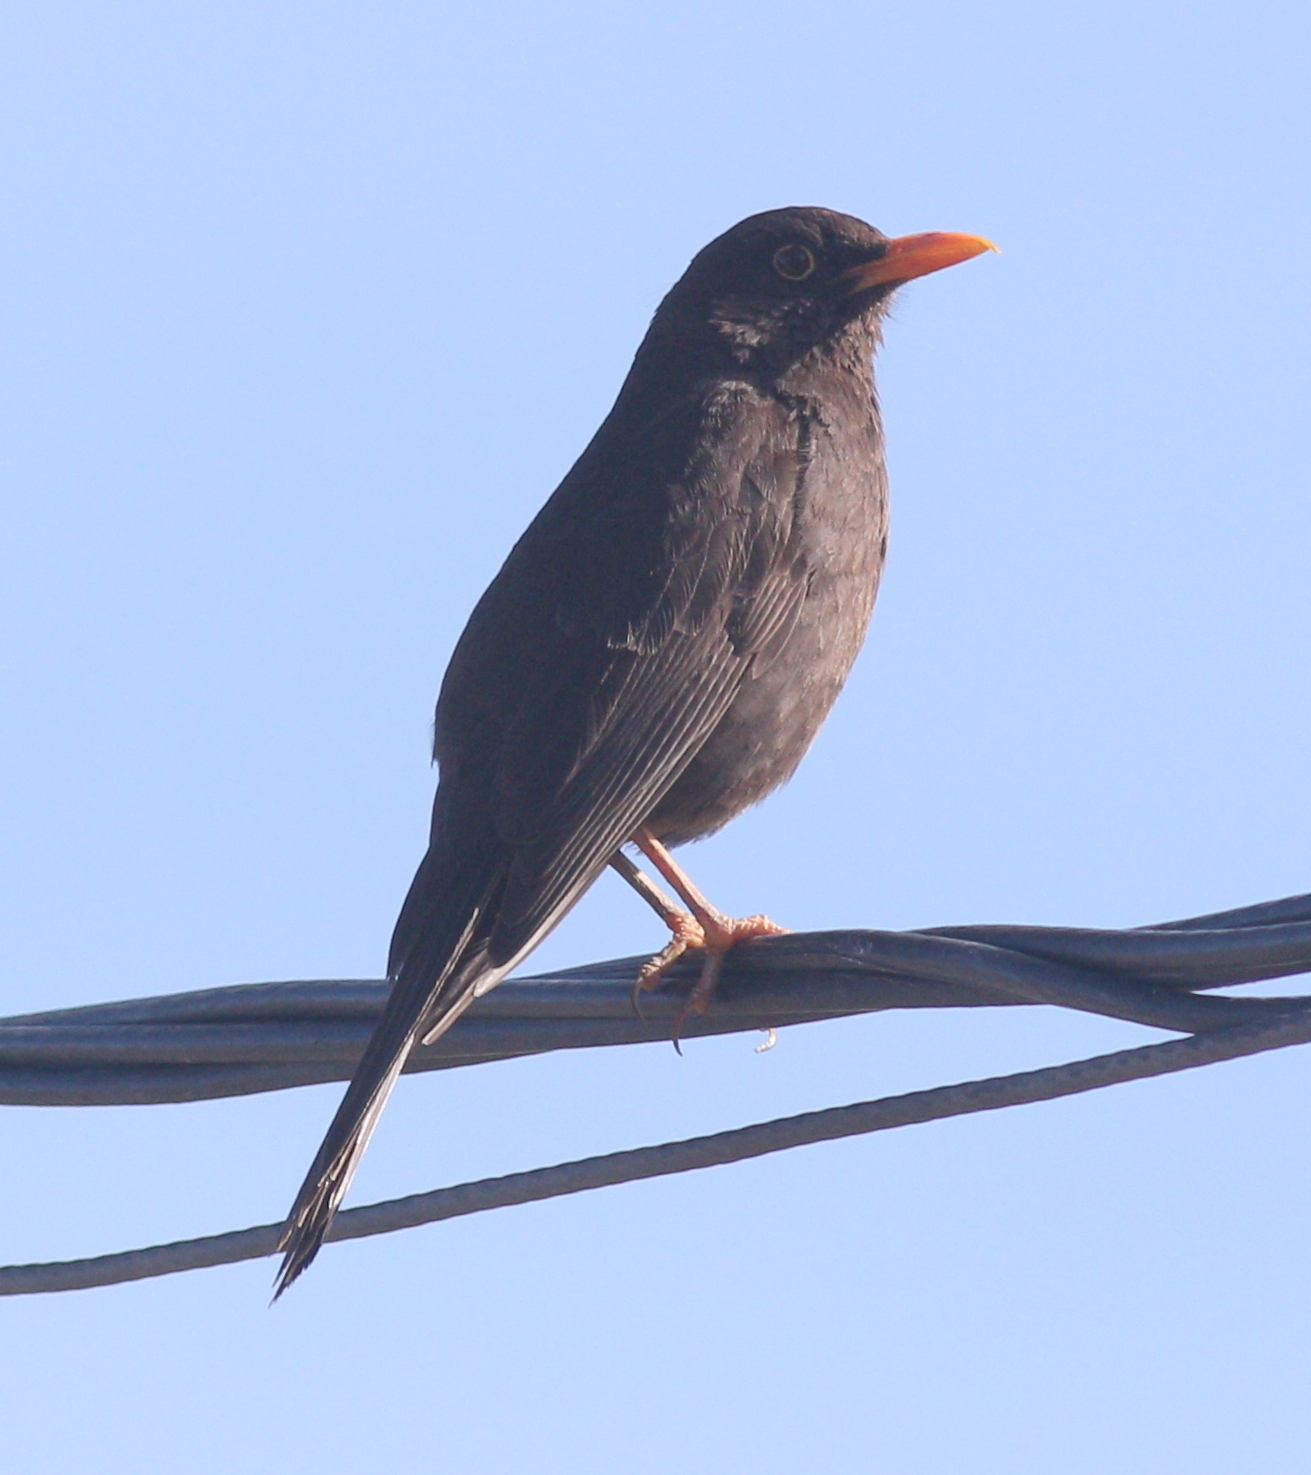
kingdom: Animalia
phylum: Chordata
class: Aves
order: Passeriformes
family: Turdidae
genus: Turdus
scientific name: Turdus chiguanco
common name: Chiguanco thrush
